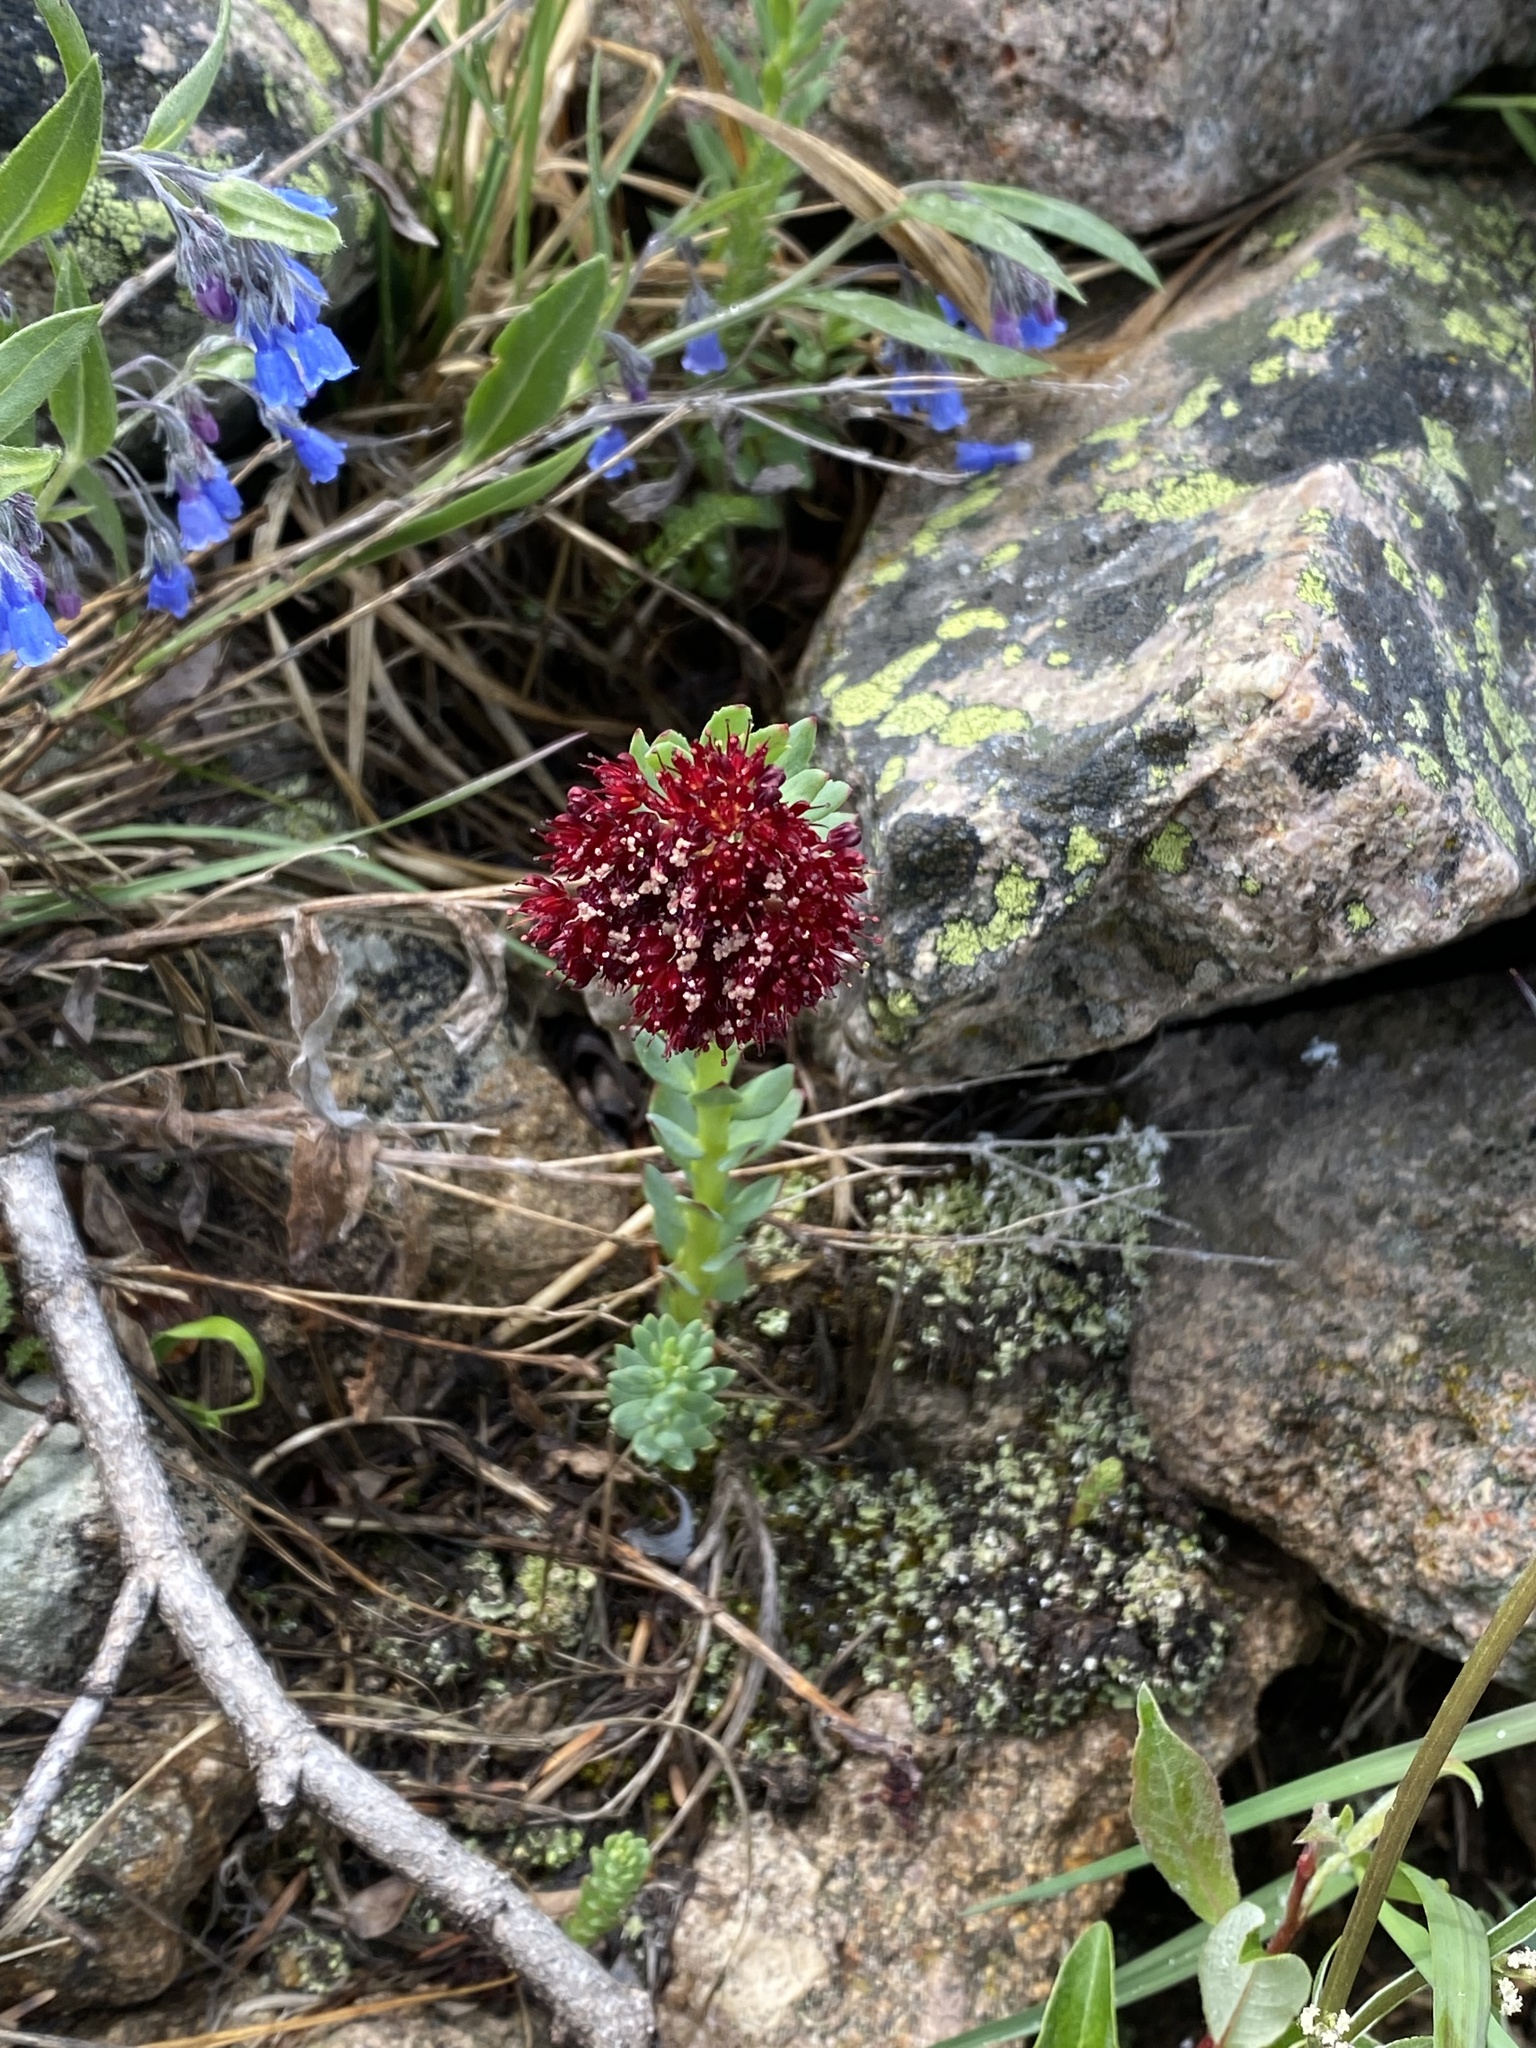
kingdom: Plantae
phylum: Tracheophyta
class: Magnoliopsida
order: Saxifragales
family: Crassulaceae
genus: Rhodiola
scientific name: Rhodiola integrifolia
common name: Western roseroot
